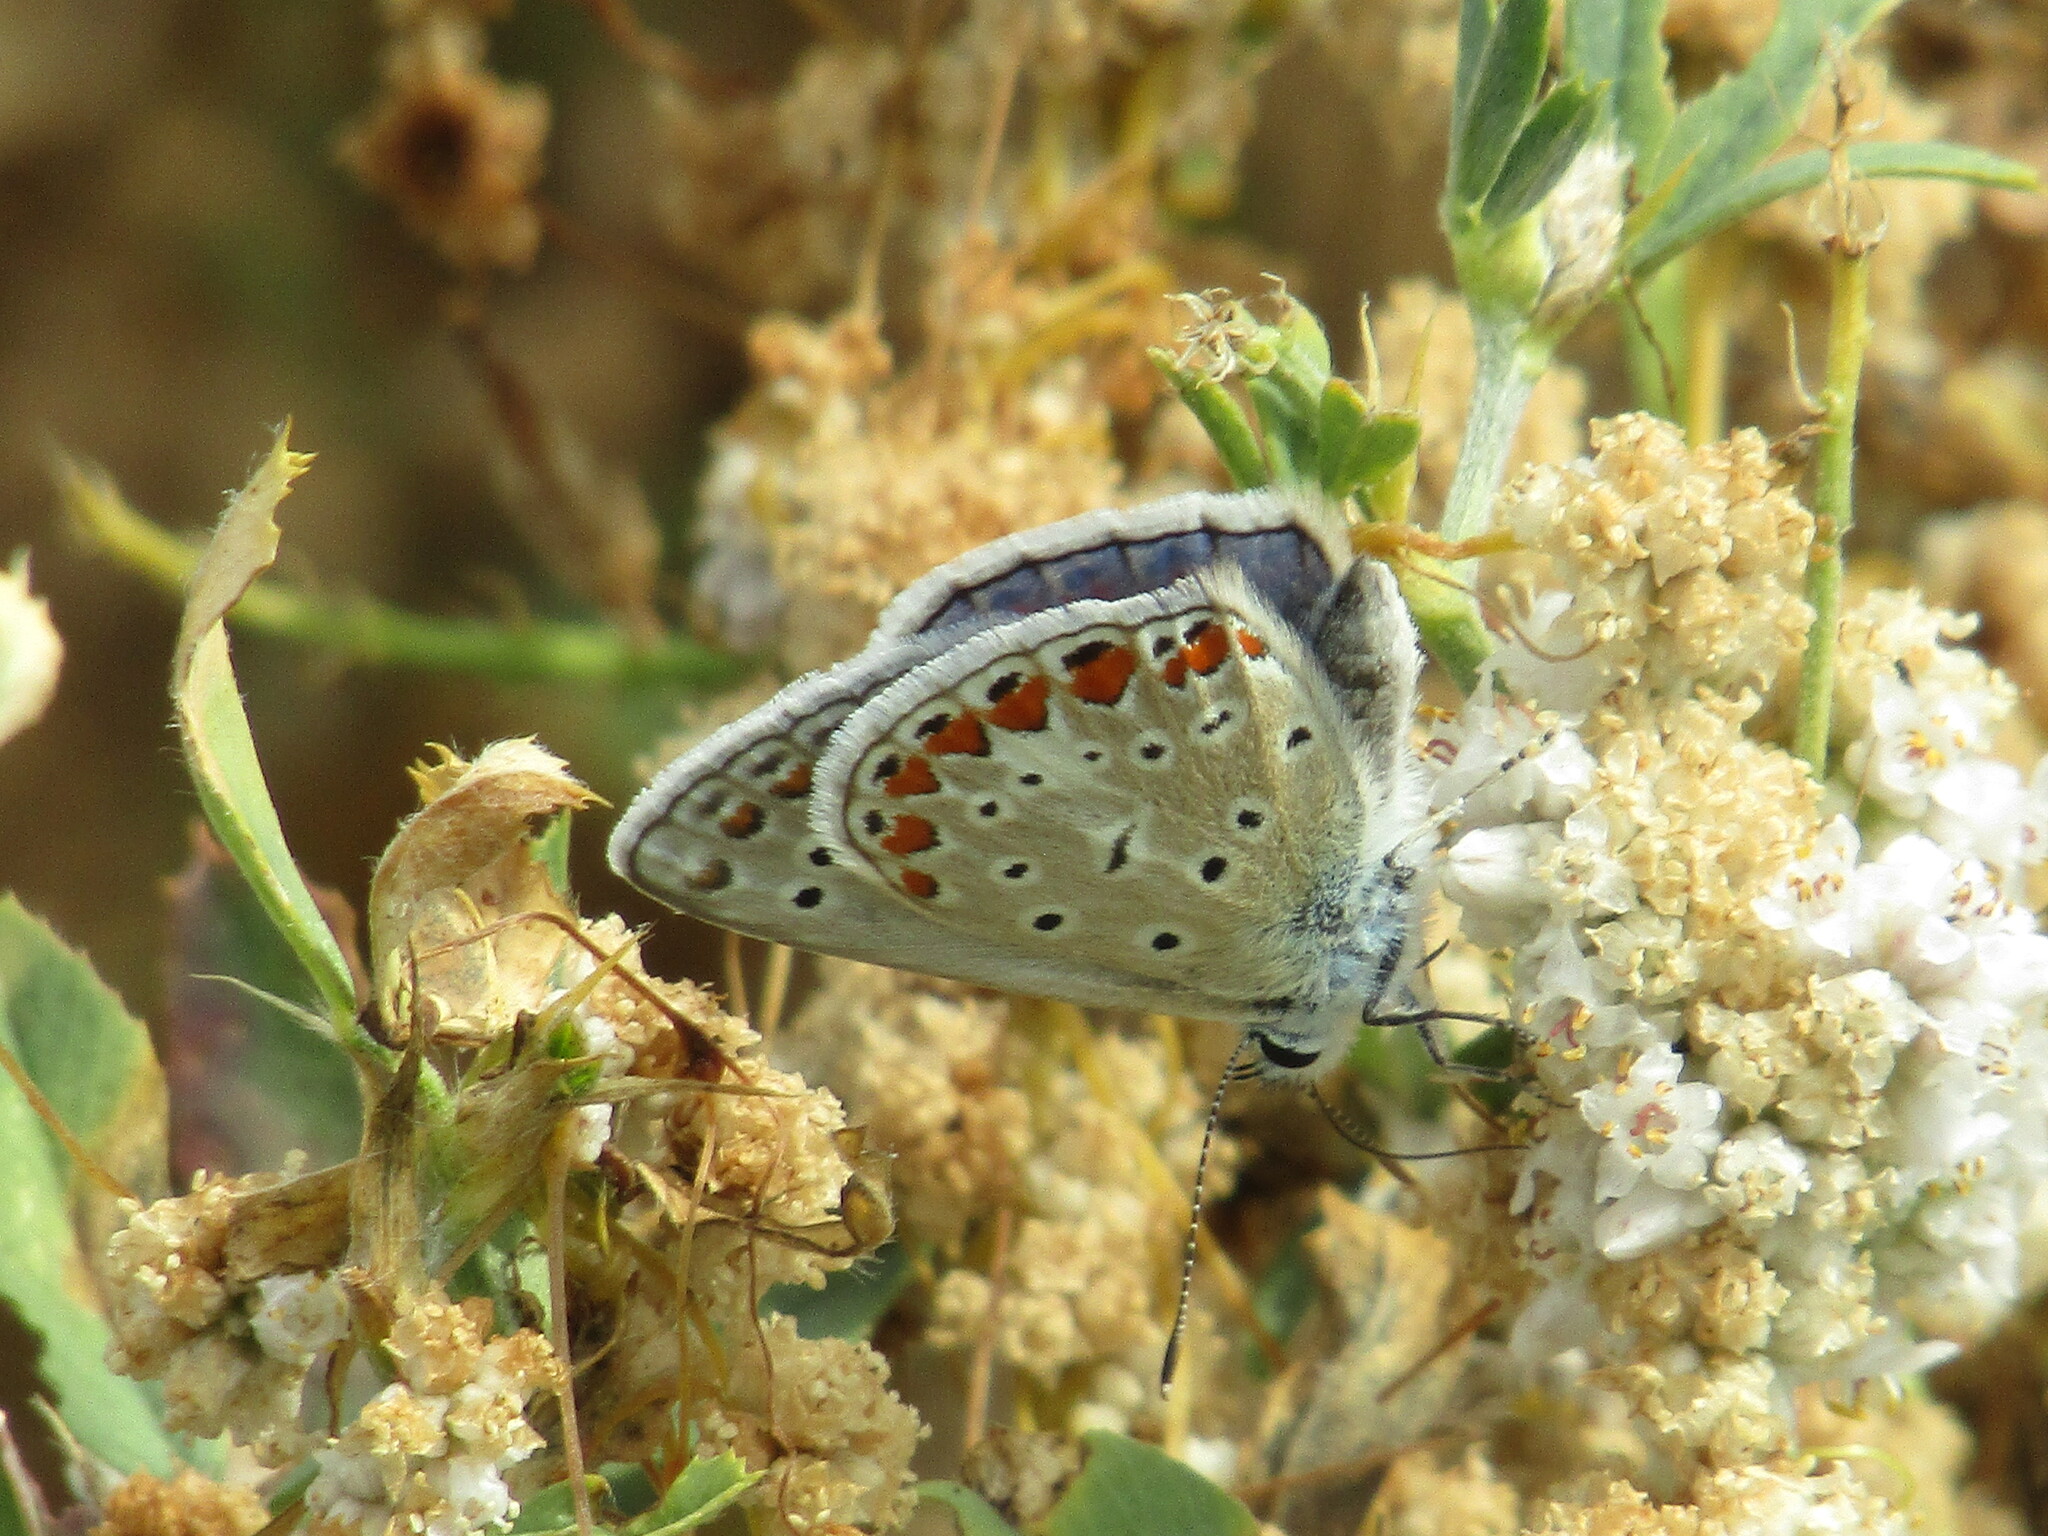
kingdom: Animalia
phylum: Arthropoda
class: Insecta
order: Lepidoptera
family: Lycaenidae
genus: Polyommatus
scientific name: Polyommatus icarus
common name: Common blue
